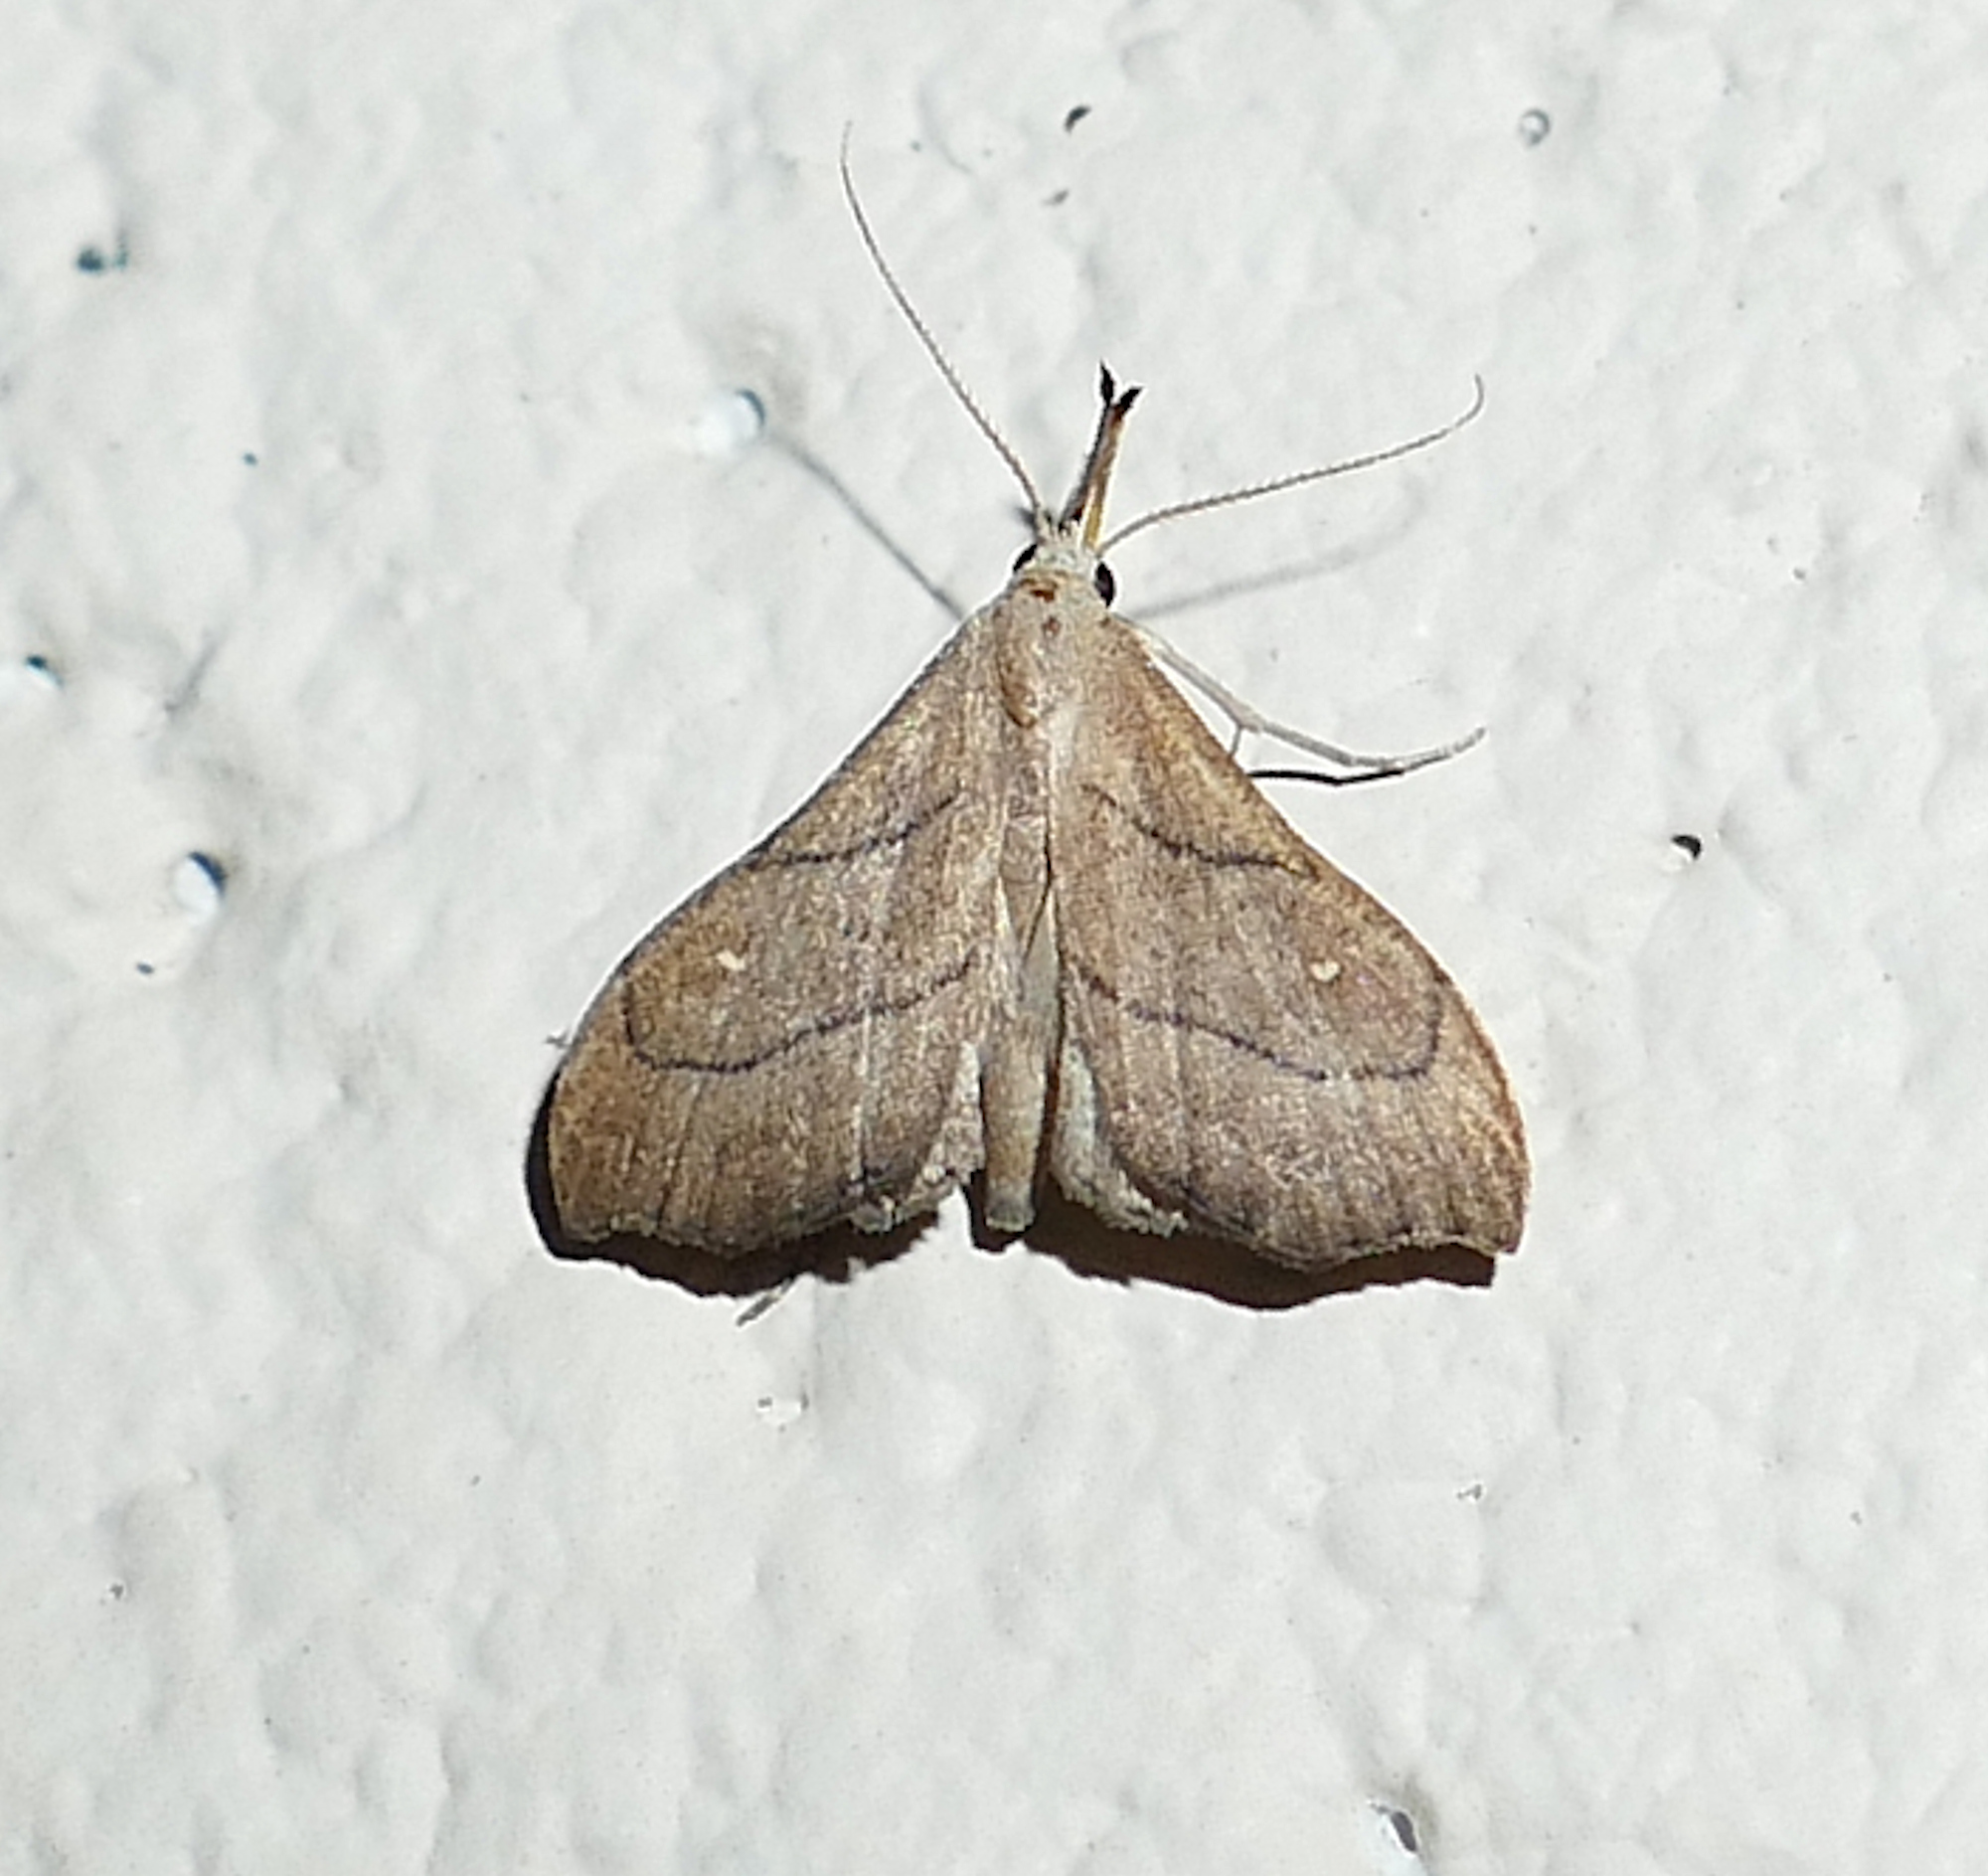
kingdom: Animalia
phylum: Arthropoda
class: Insecta
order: Lepidoptera
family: Erebidae
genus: Macristis
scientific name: Macristis schausi
